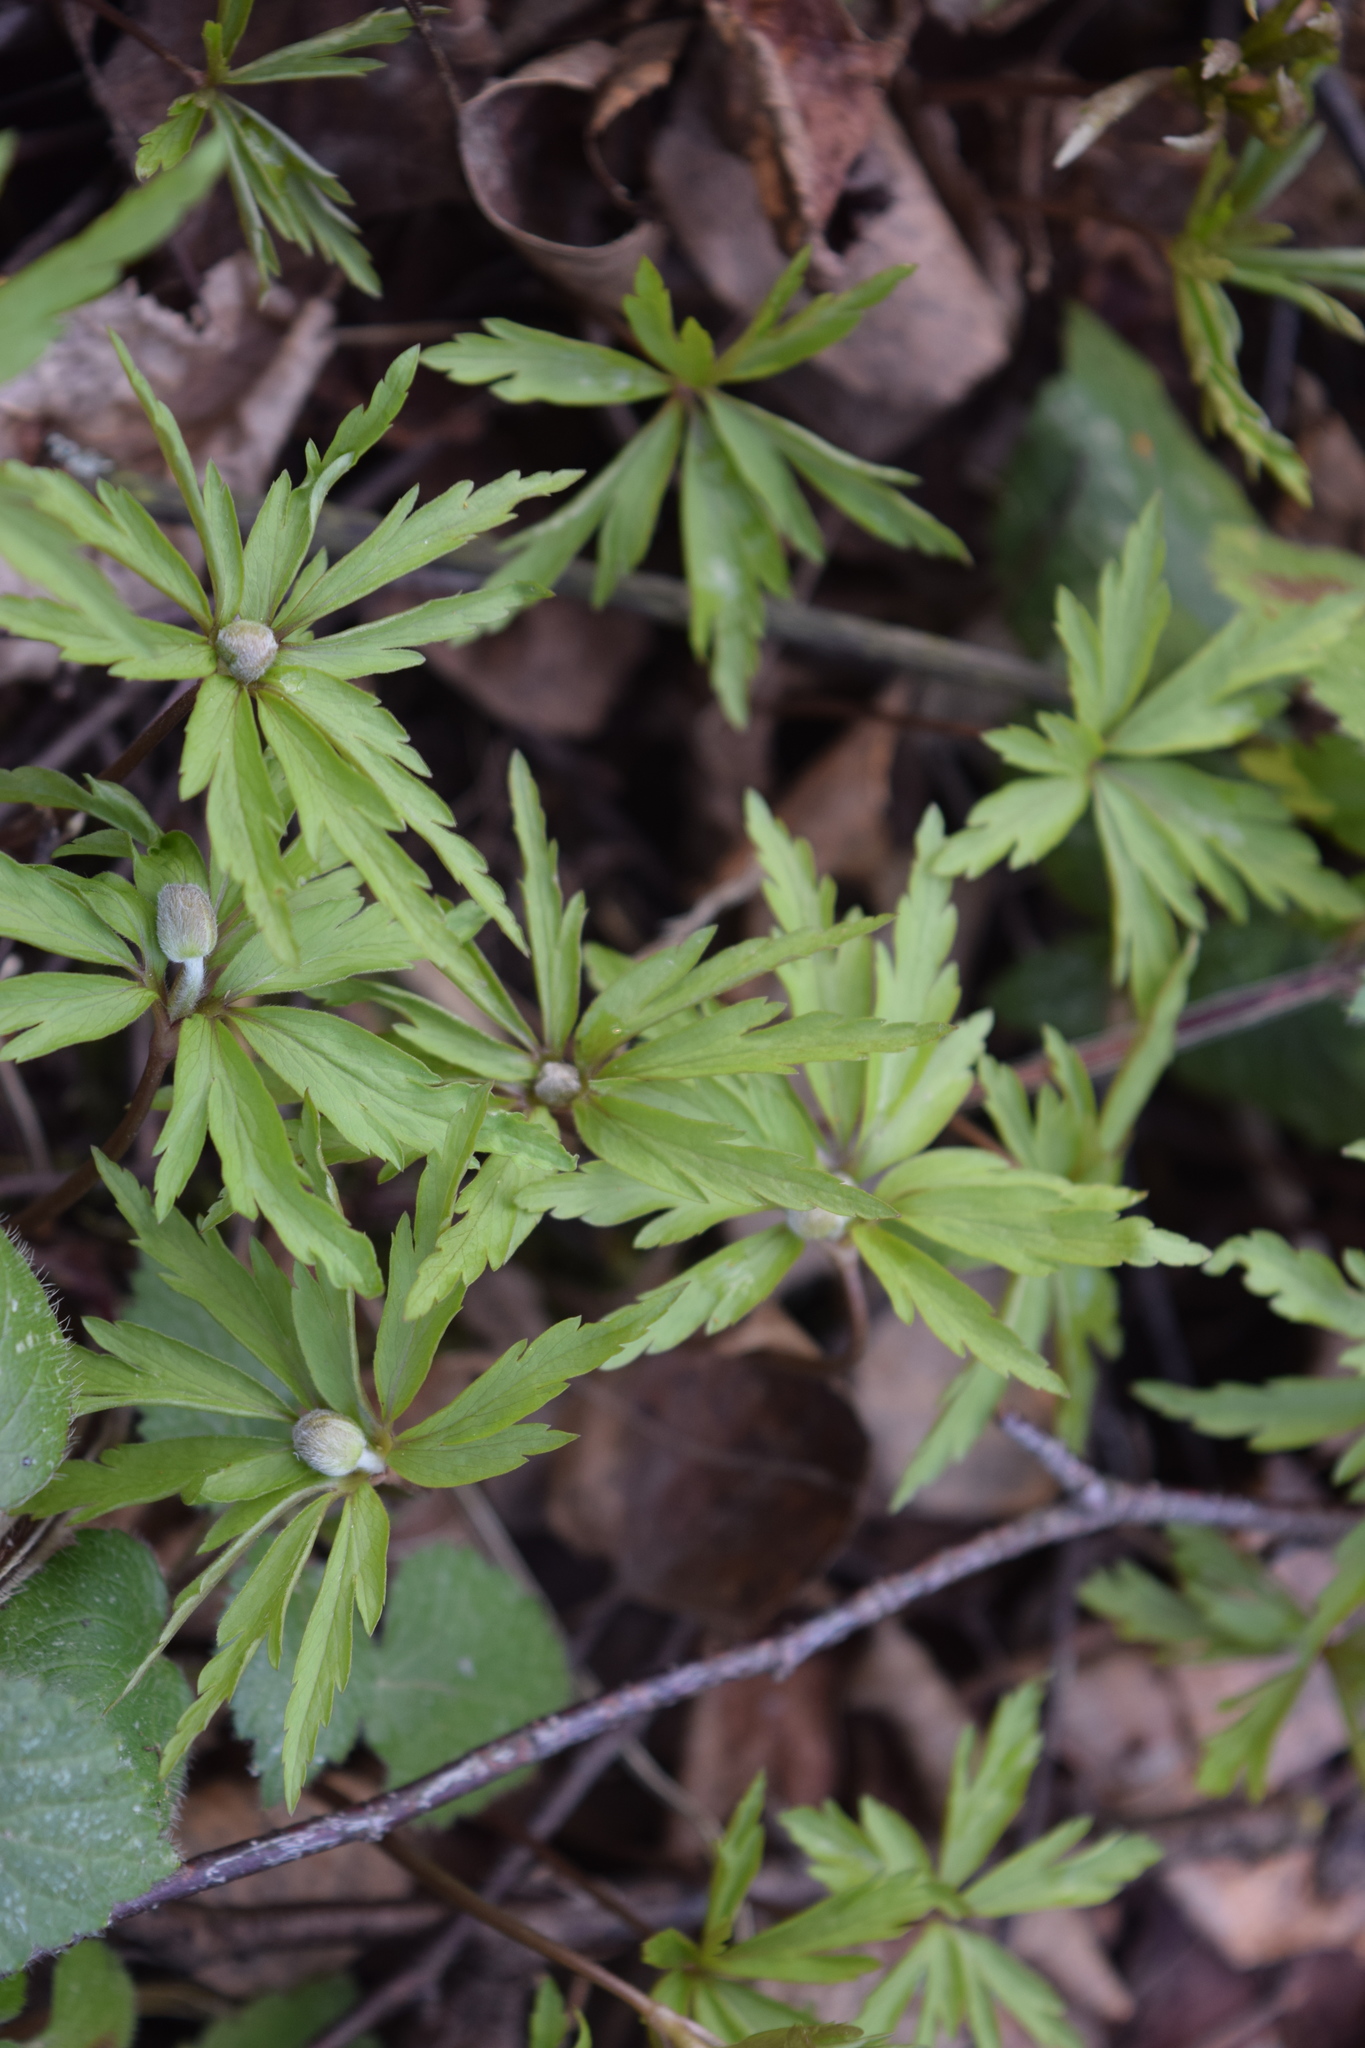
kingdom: Plantae
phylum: Tracheophyta
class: Magnoliopsida
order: Ranunculales
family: Ranunculaceae
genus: Anemone
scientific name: Anemone ranunculoides
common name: Yellow anemone
